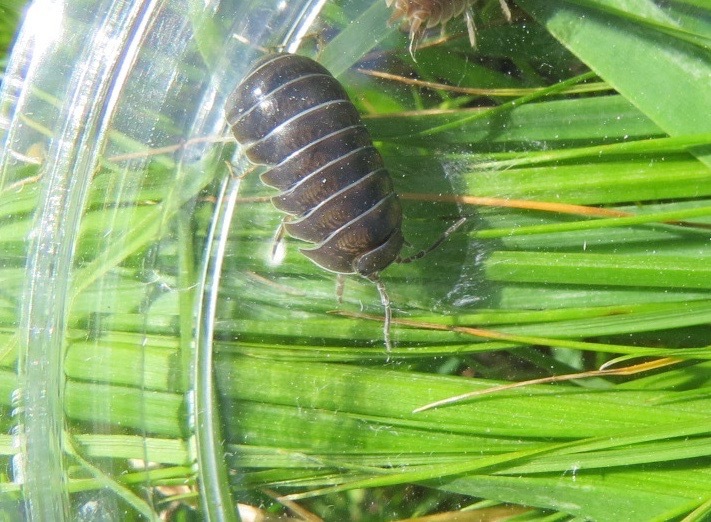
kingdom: Animalia
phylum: Arthropoda
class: Malacostraca
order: Isopoda
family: Armadillidiidae
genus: Armadillidium
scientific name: Armadillidium vulgare
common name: Common pill woodlouse
